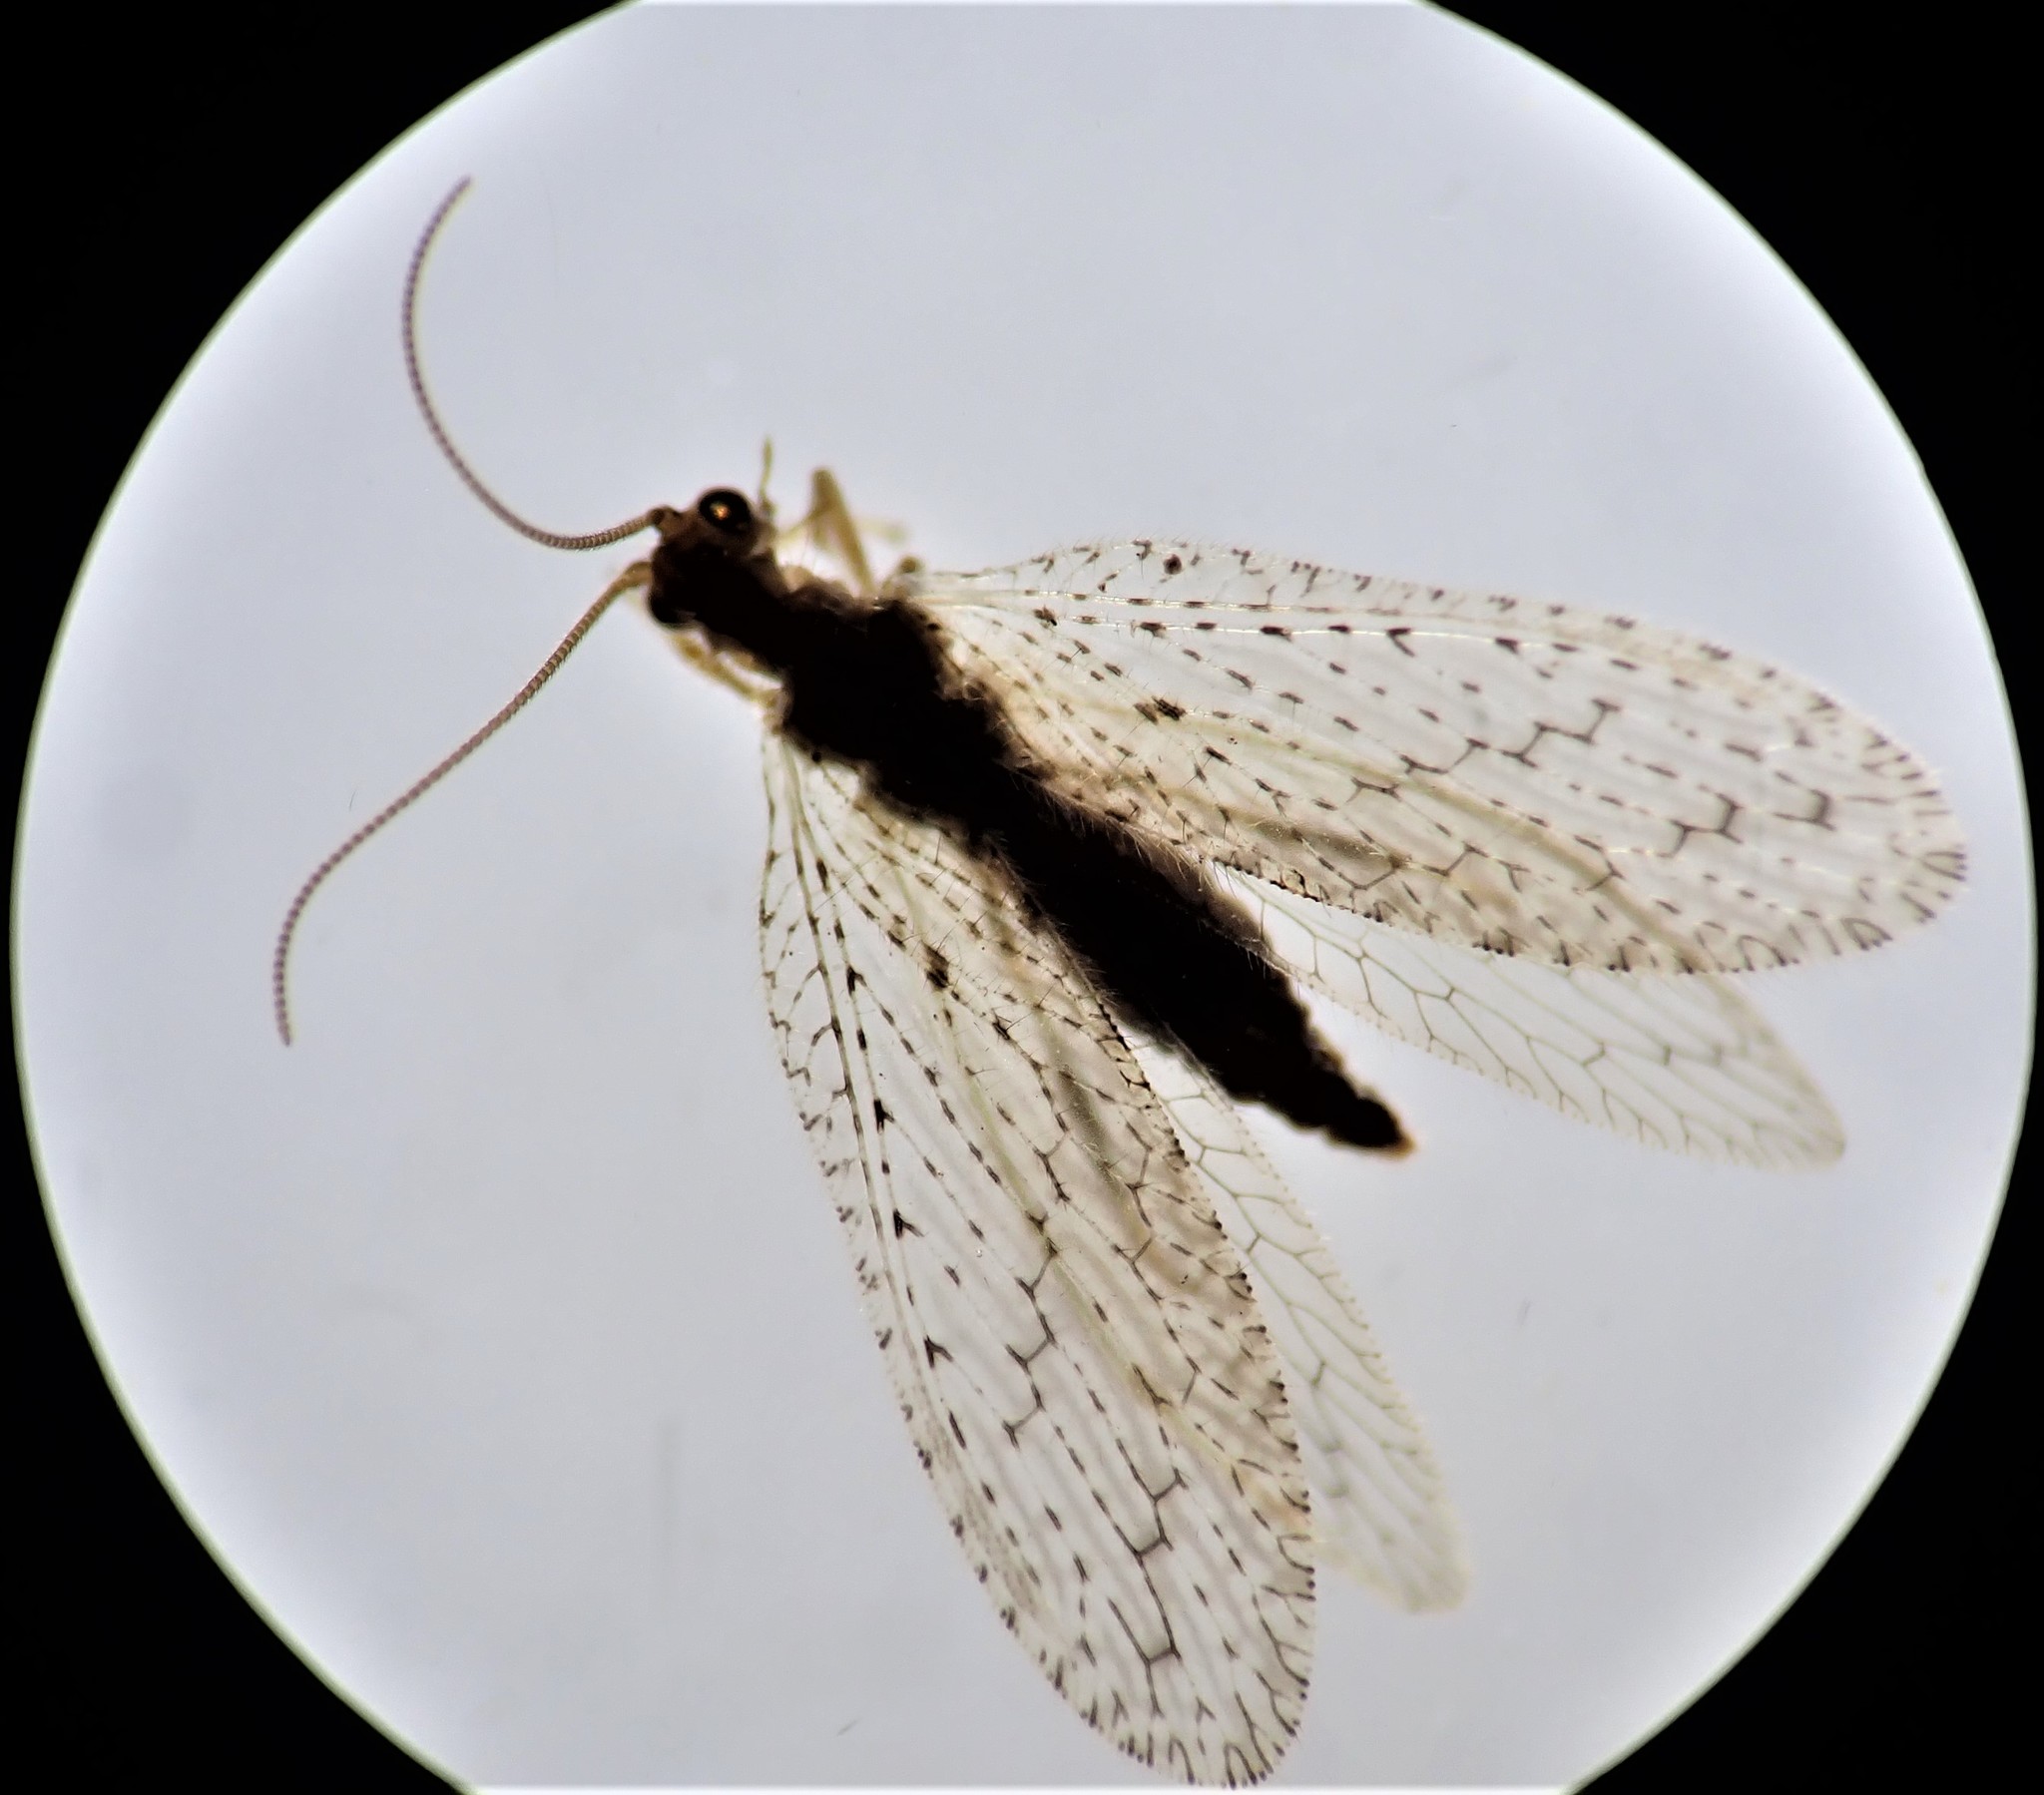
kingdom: Animalia
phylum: Arthropoda
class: Insecta
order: Neuroptera
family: Hemerobiidae
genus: Micromus
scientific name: Micromus tasmaniae
